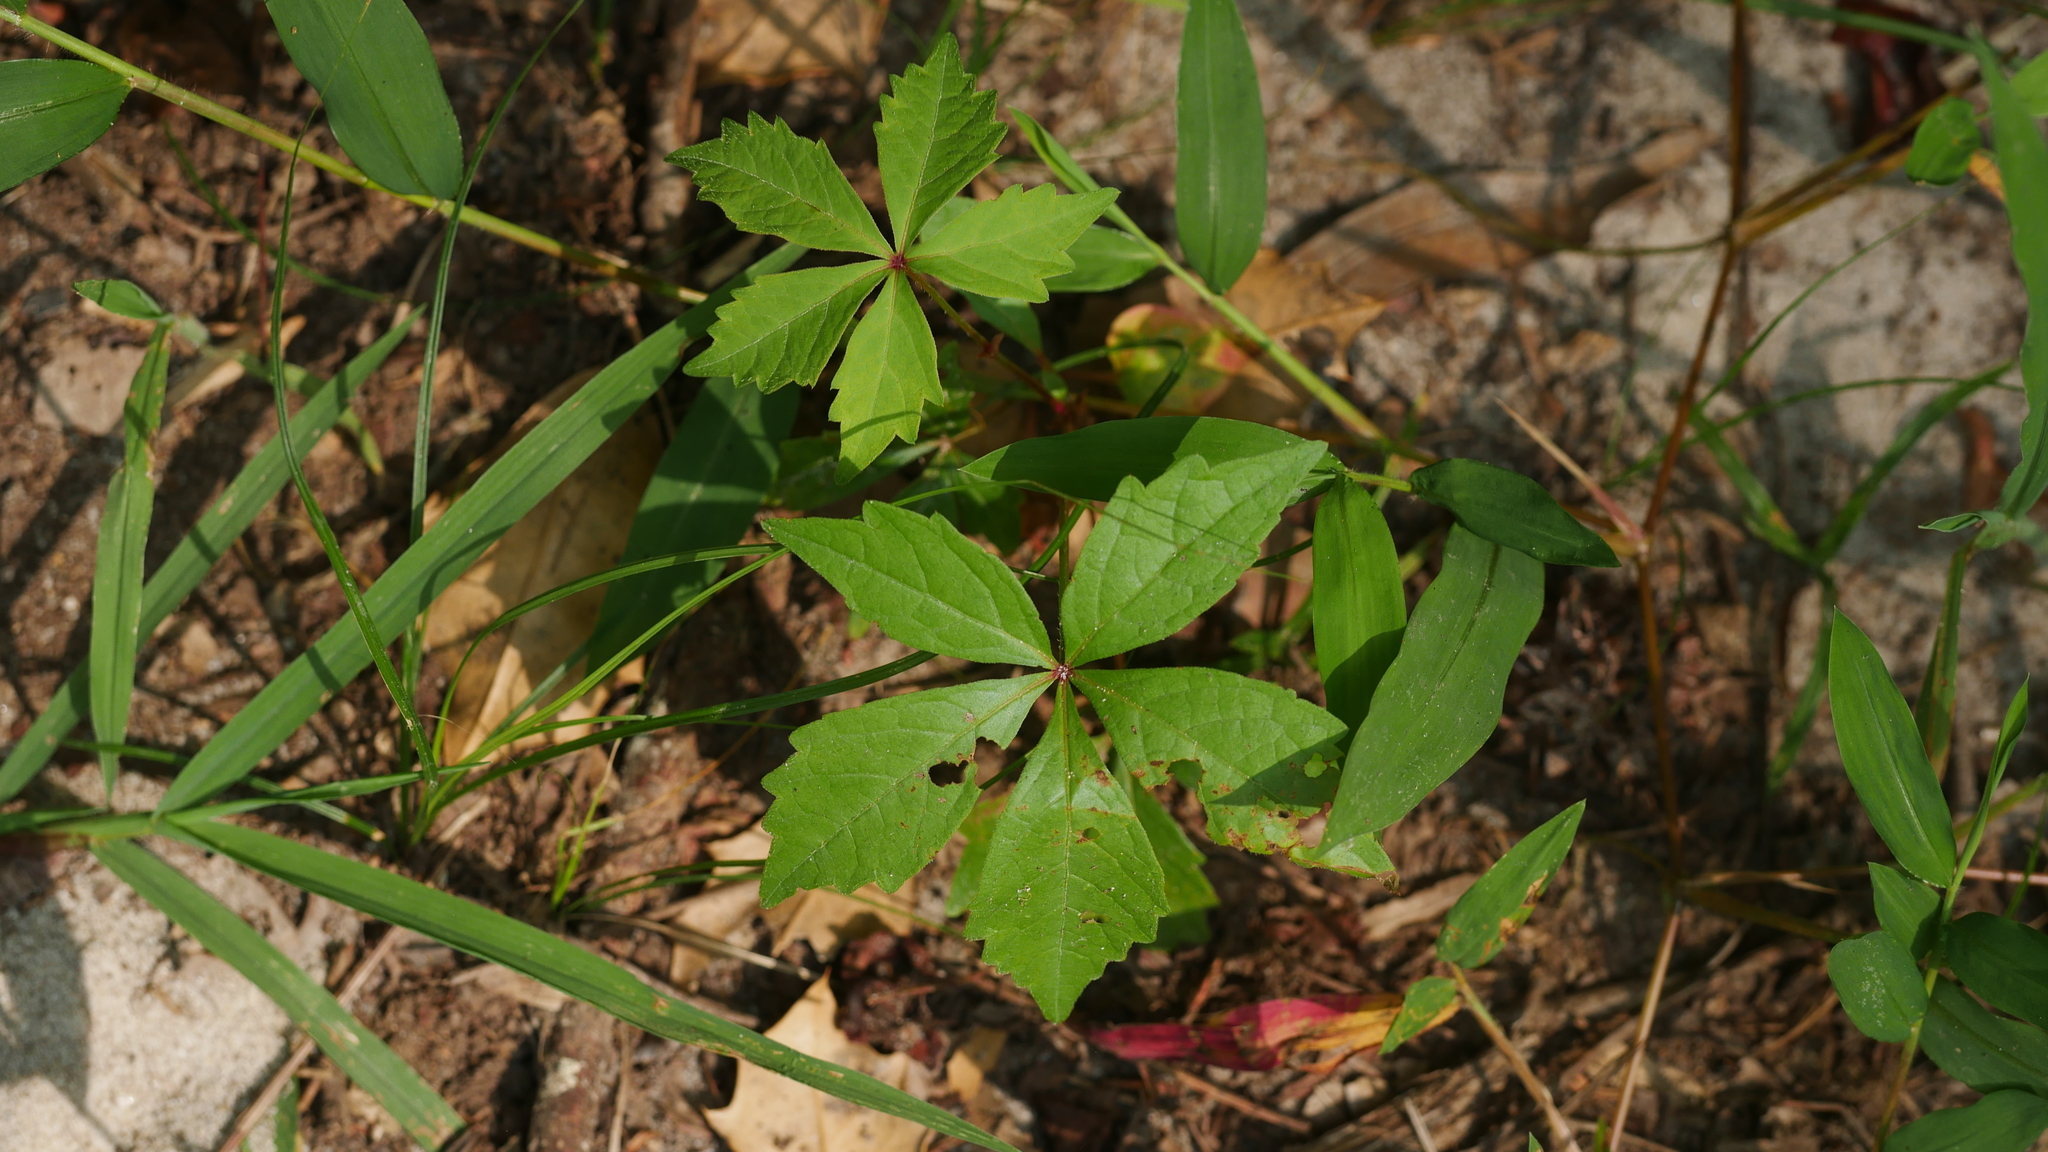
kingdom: Plantae
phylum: Tracheophyta
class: Magnoliopsida
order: Vitales
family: Vitaceae
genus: Parthenocissus
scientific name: Parthenocissus quinquefolia
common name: Virginia-creeper
